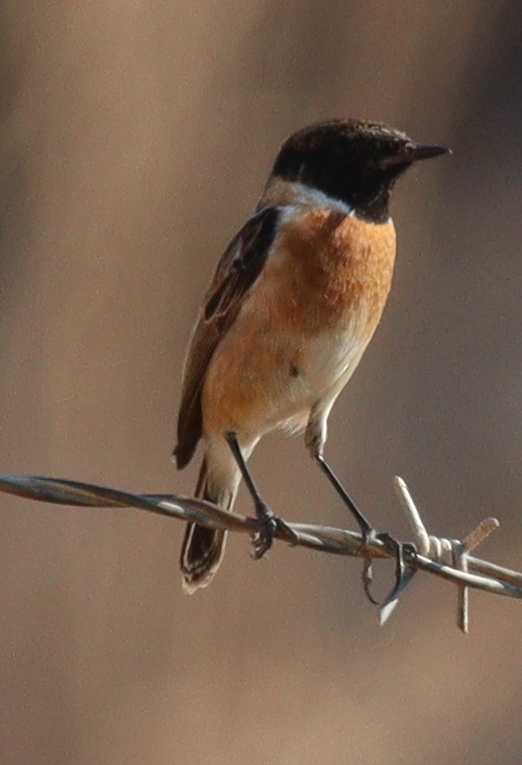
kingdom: Animalia
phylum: Chordata
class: Aves
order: Passeriformes
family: Muscicapidae
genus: Saxicola
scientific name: Saxicola rubicola
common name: European stonechat
